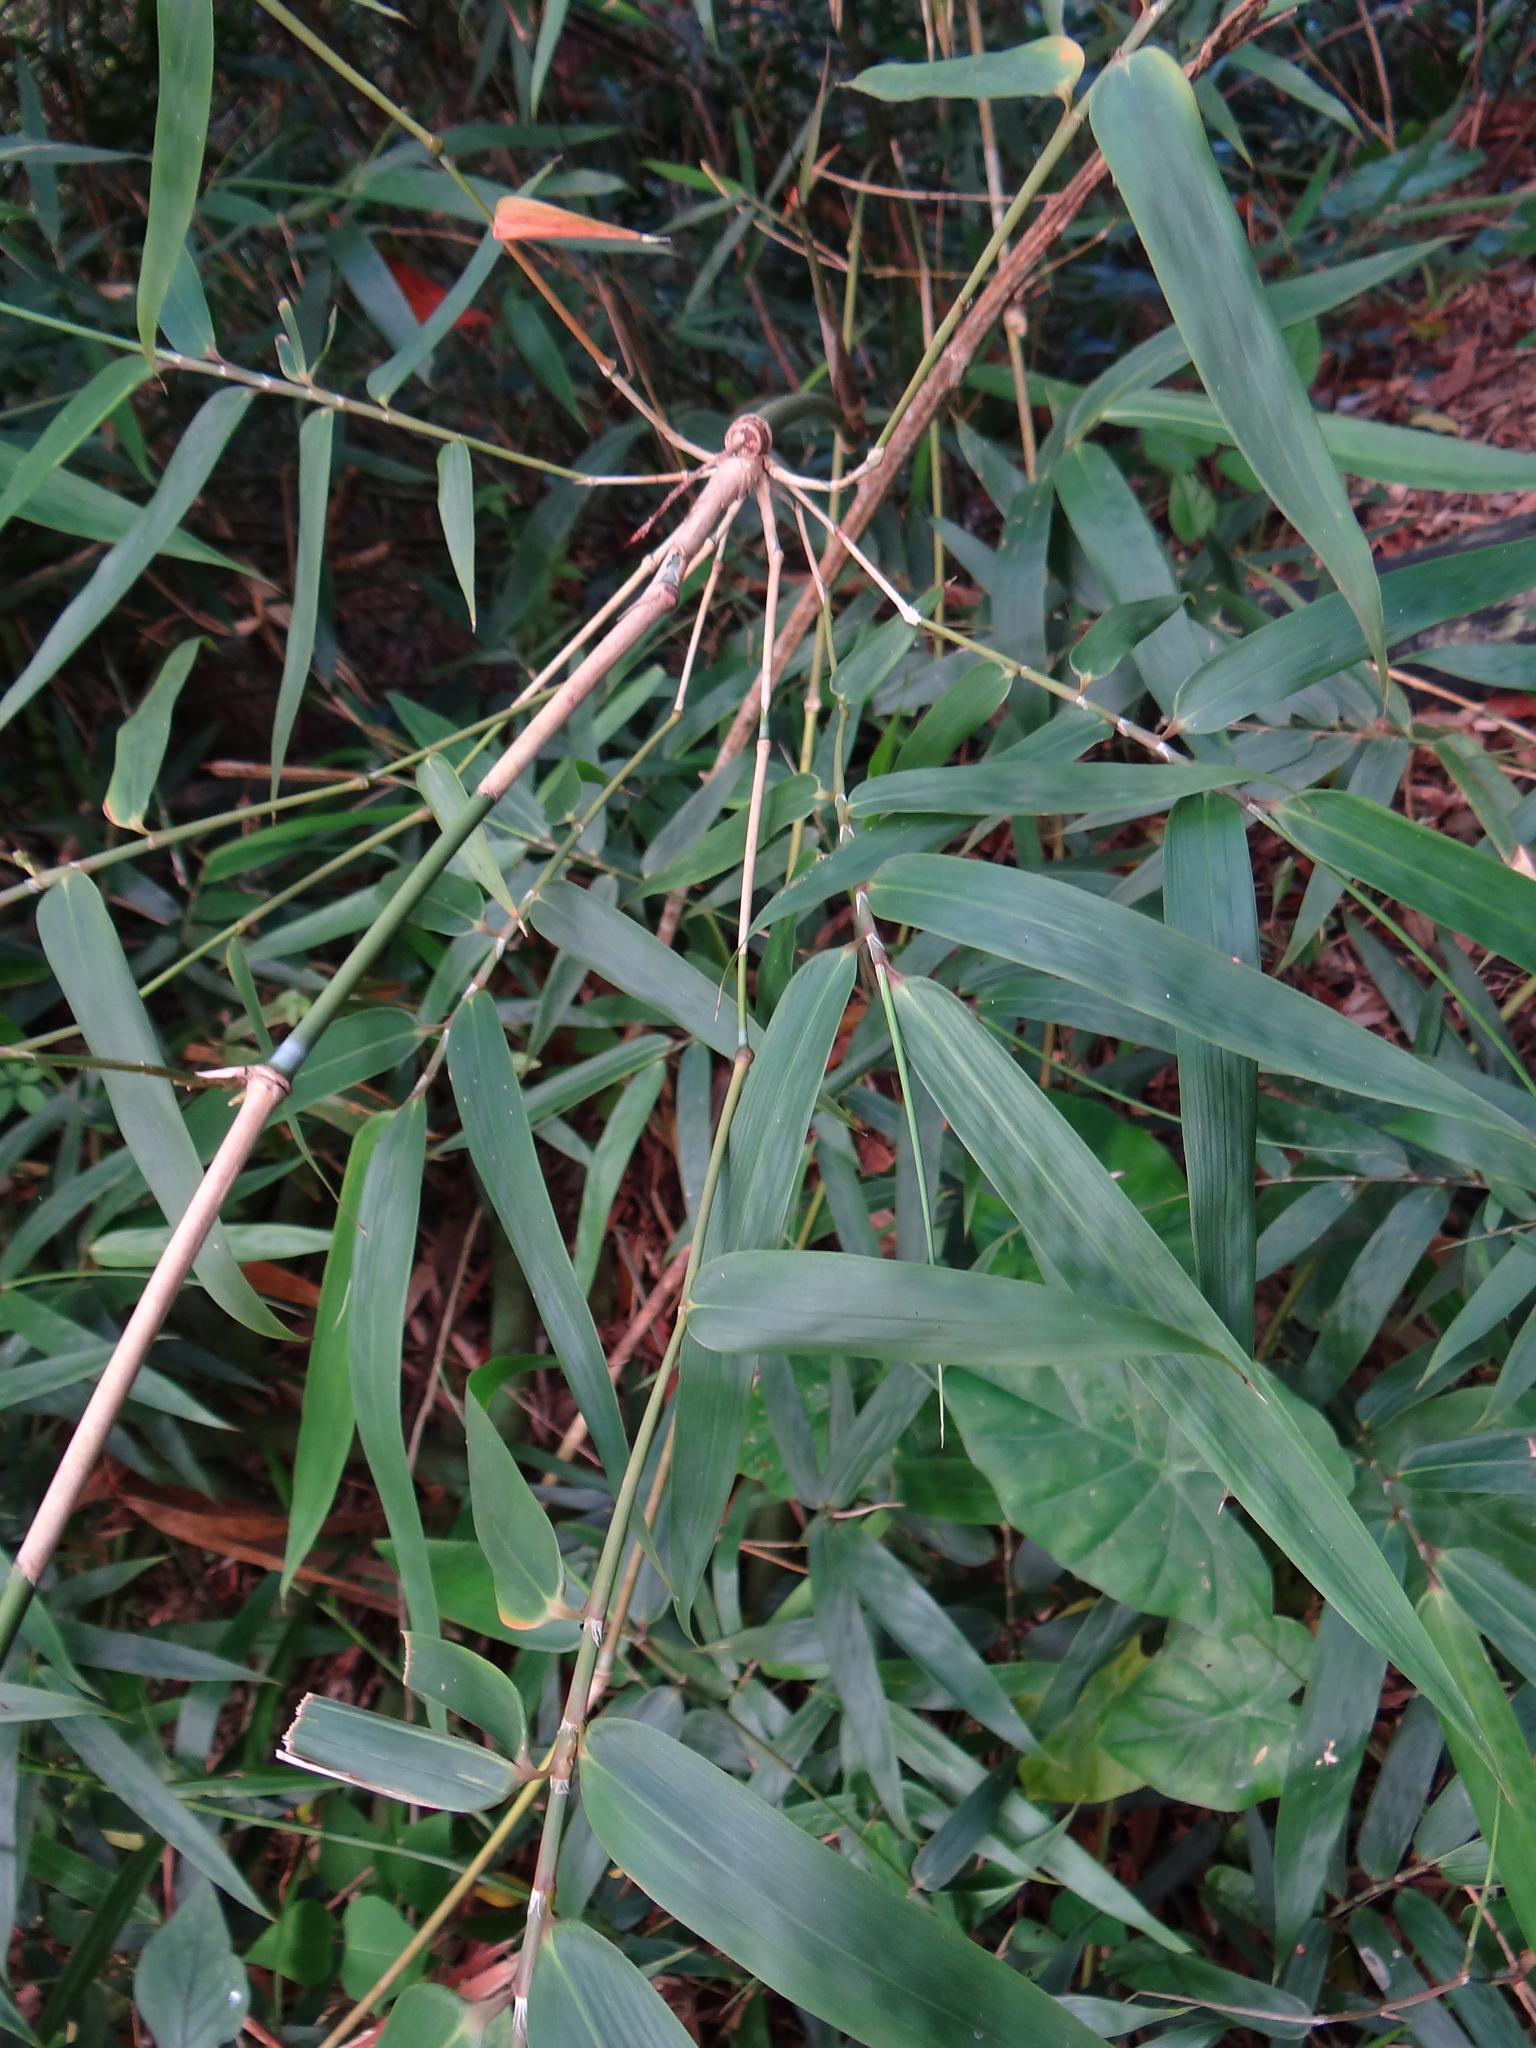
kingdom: Plantae
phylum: Tracheophyta
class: Liliopsida
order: Poales
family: Poaceae
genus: Bambusa
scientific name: Bambusa diffusa
